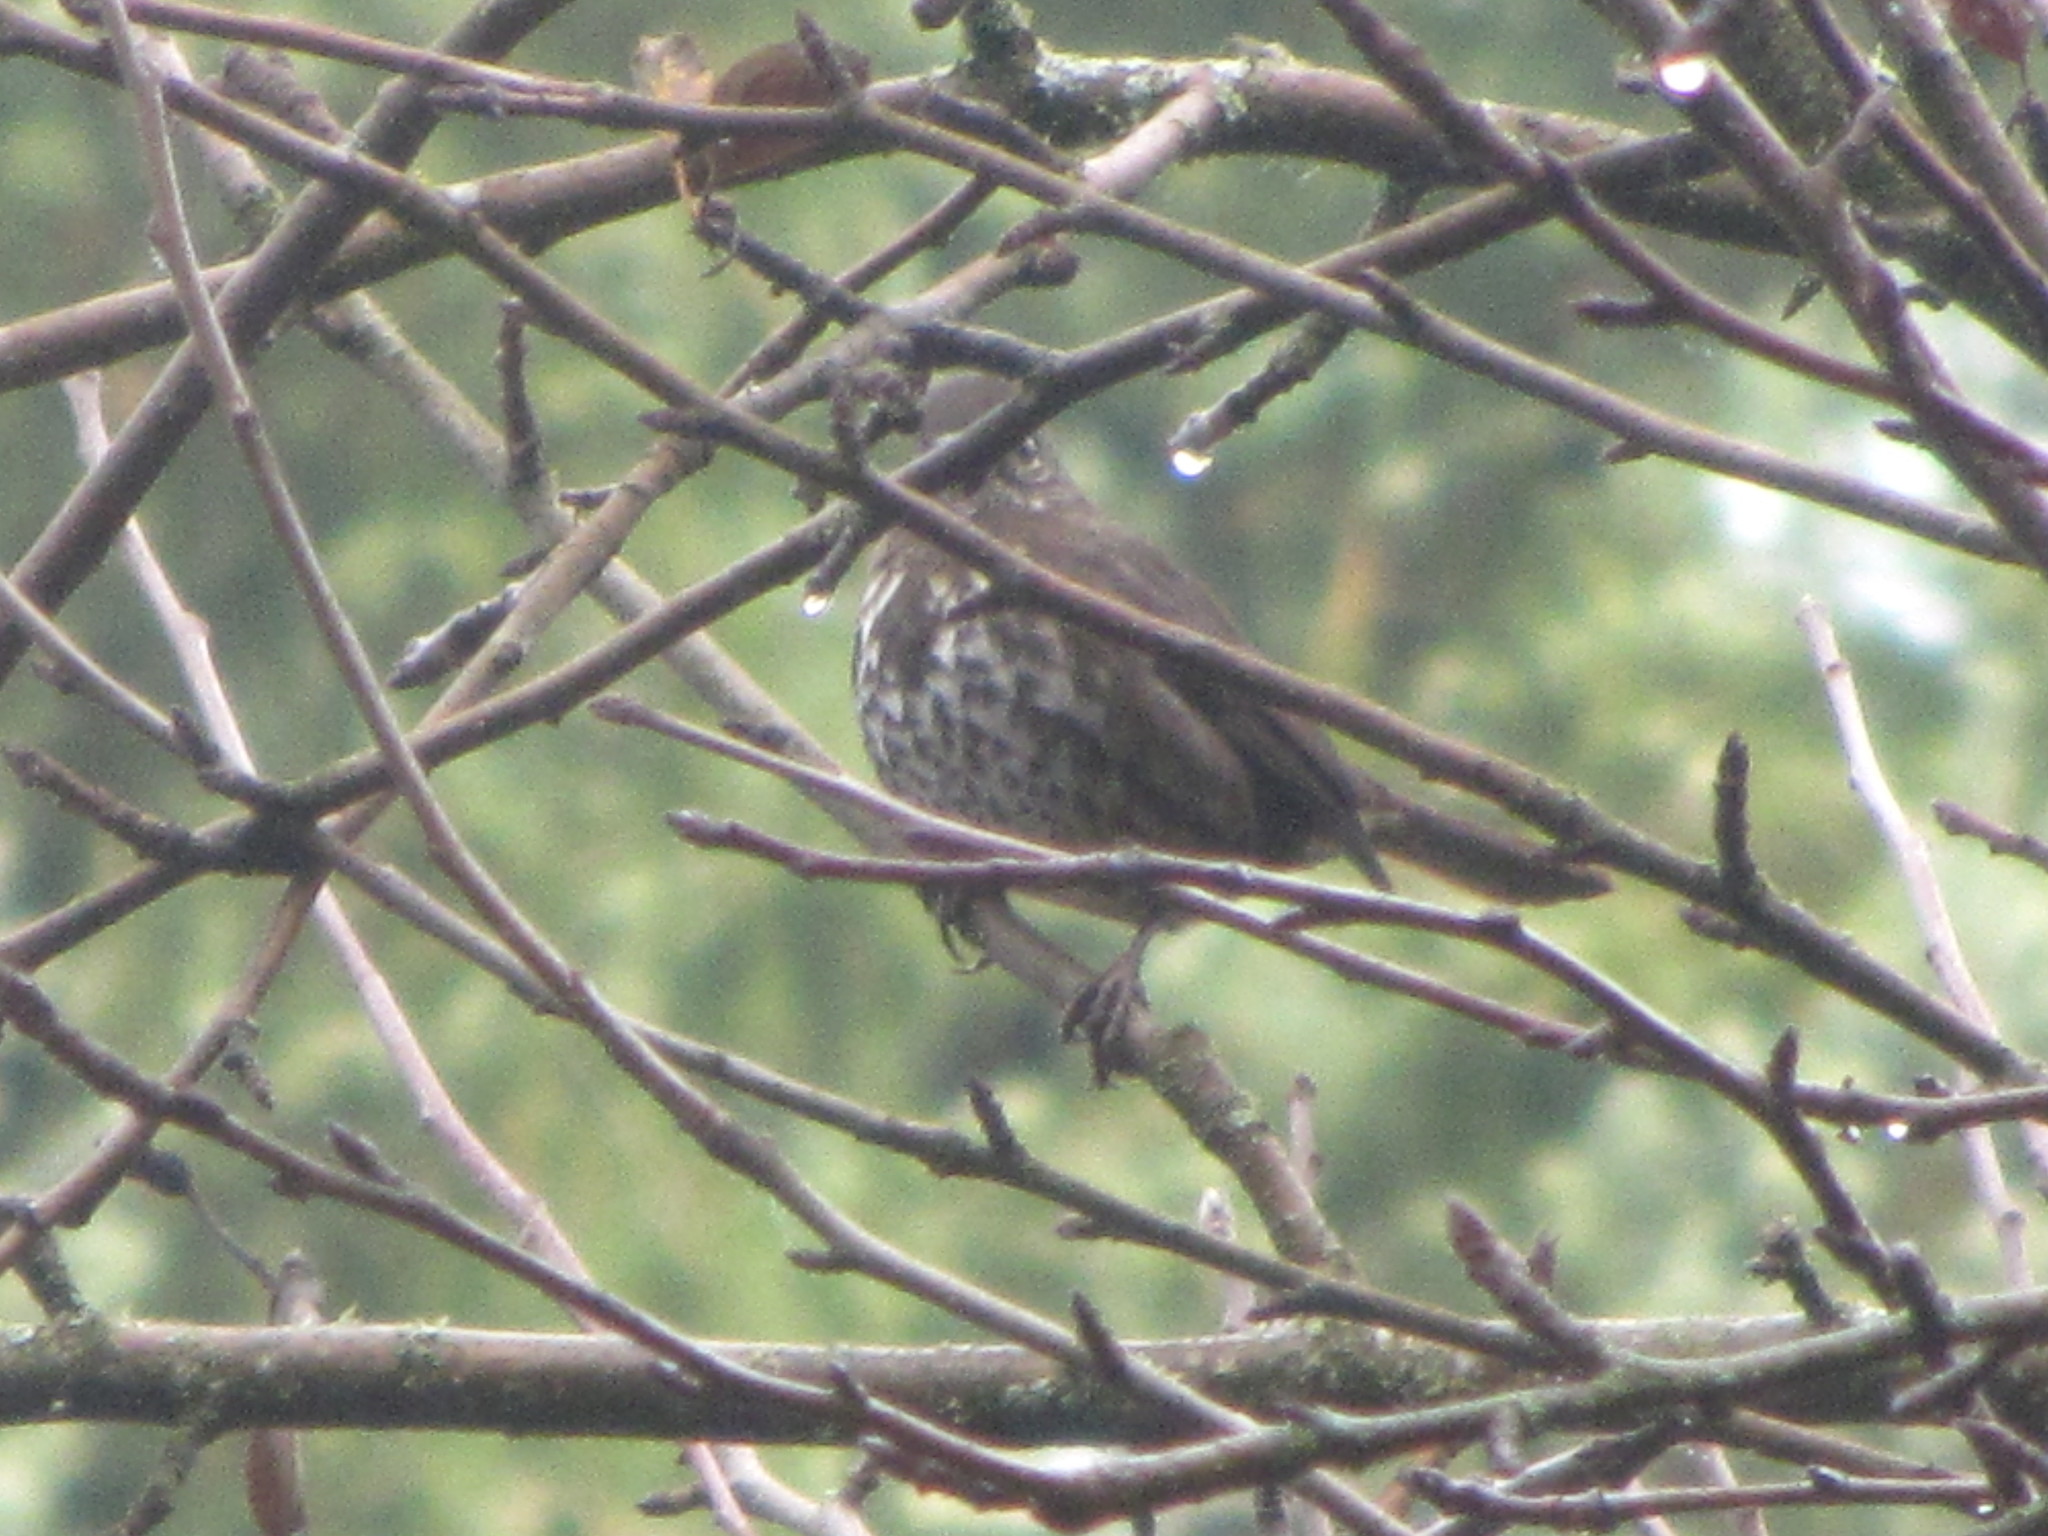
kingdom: Animalia
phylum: Chordata
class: Aves
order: Passeriformes
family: Passerellidae
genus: Passerella
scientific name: Passerella iliaca
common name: Fox sparrow
